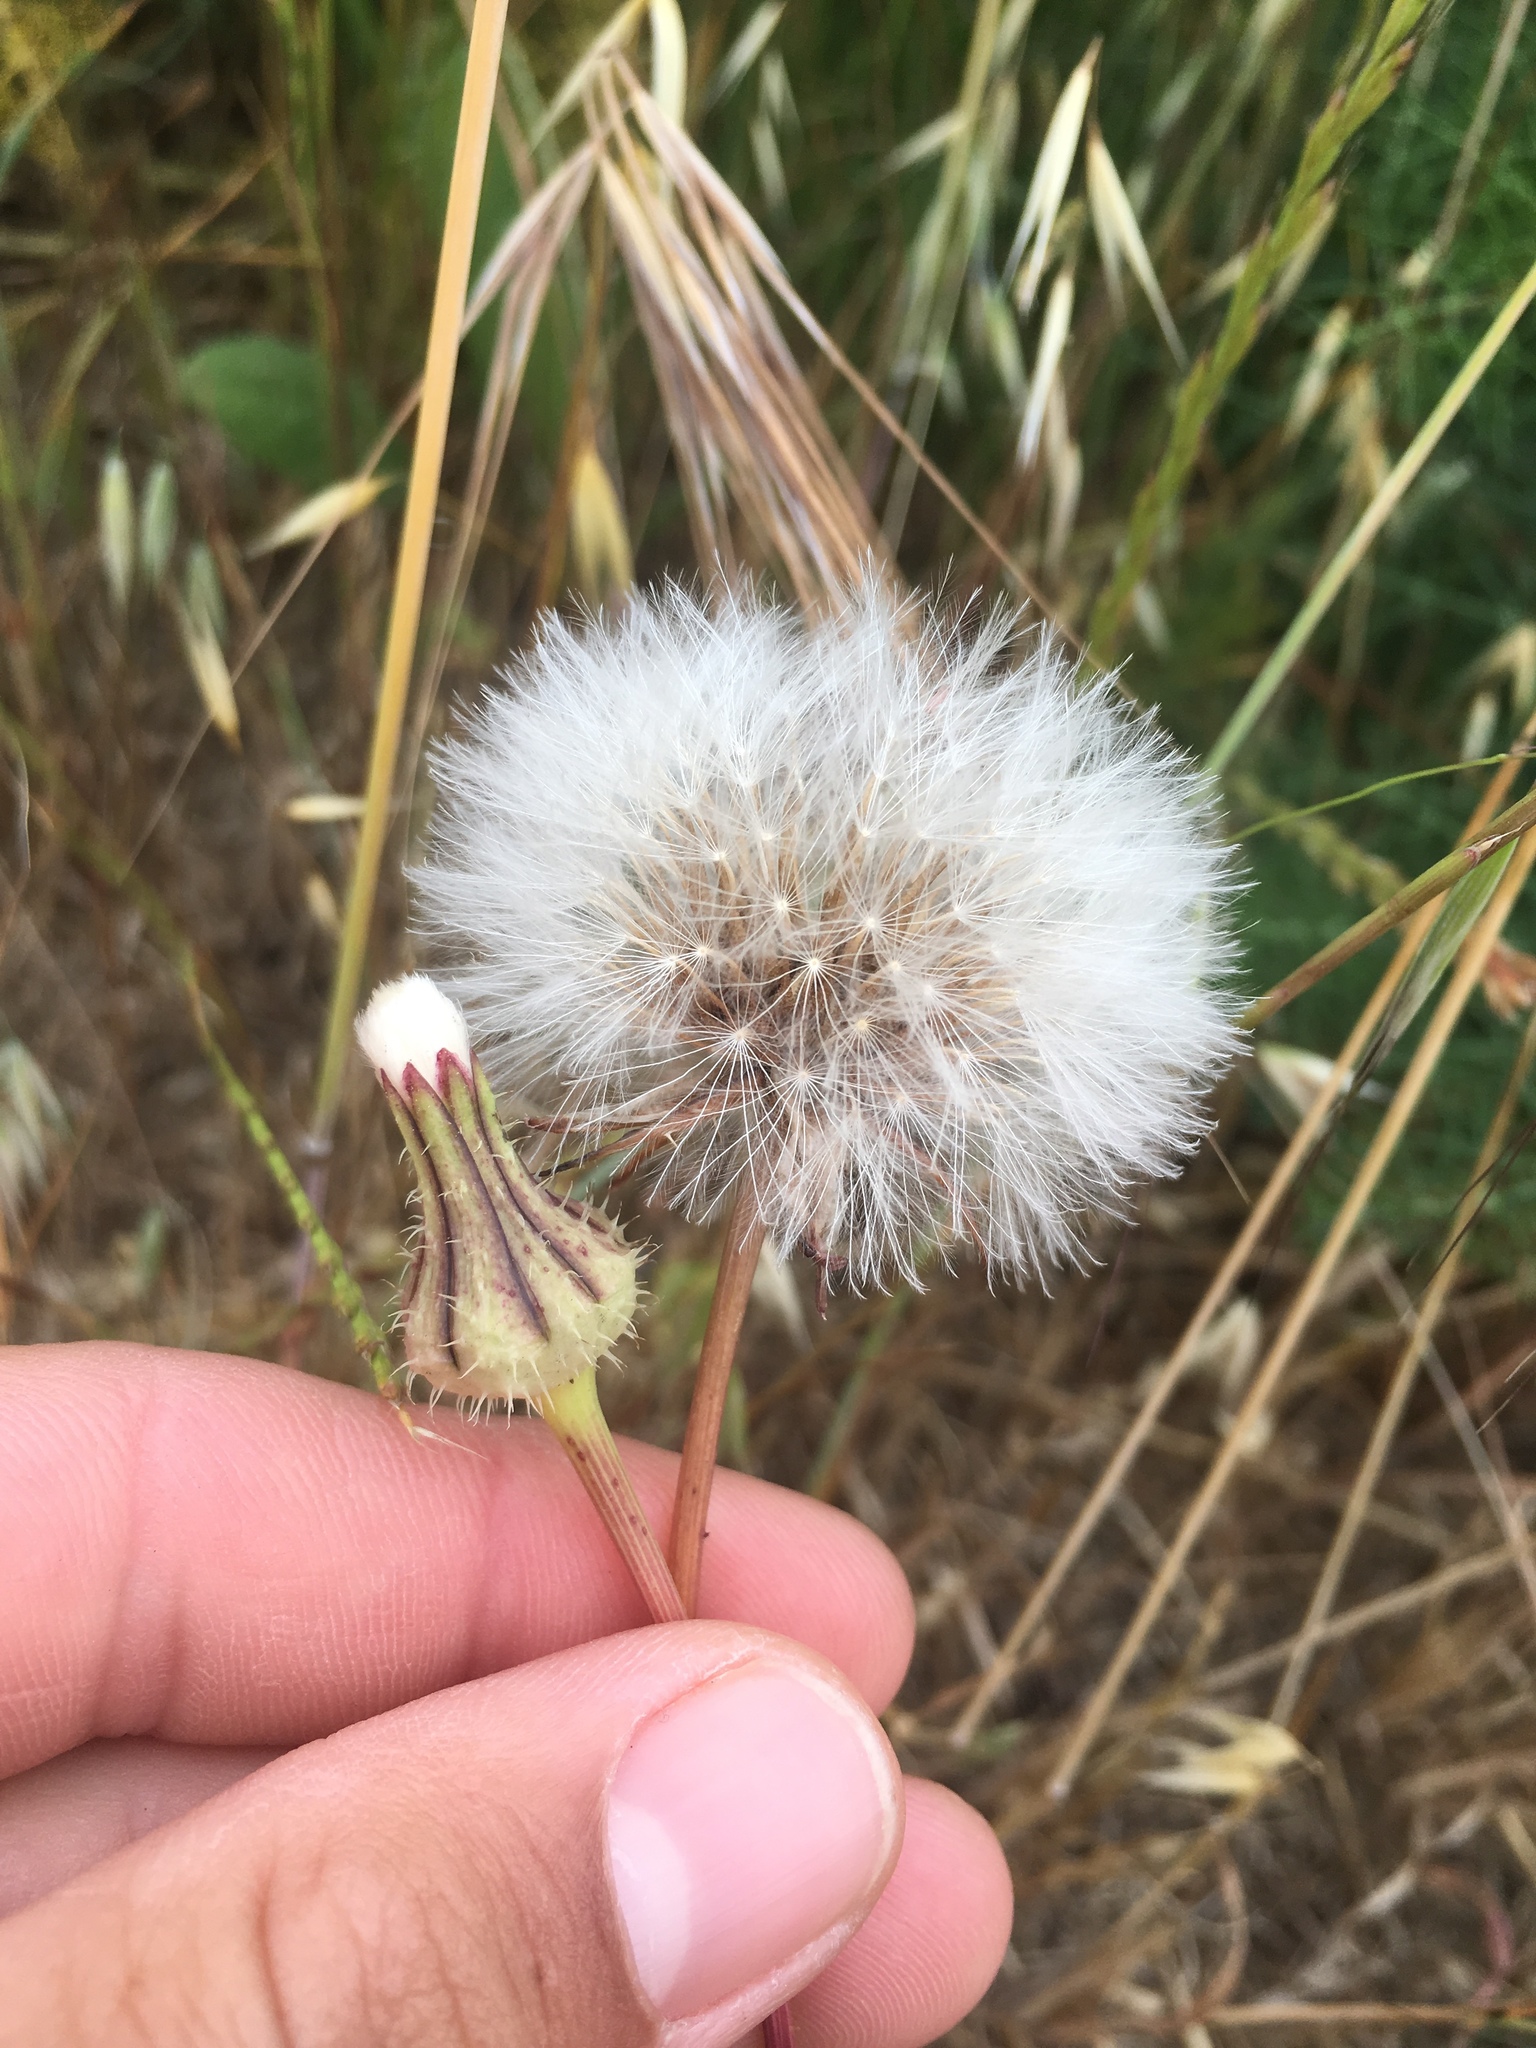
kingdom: Plantae
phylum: Tracheophyta
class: Magnoliopsida
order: Asterales
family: Asteraceae
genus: Urospermum
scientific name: Urospermum picroides
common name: False hawkbit
